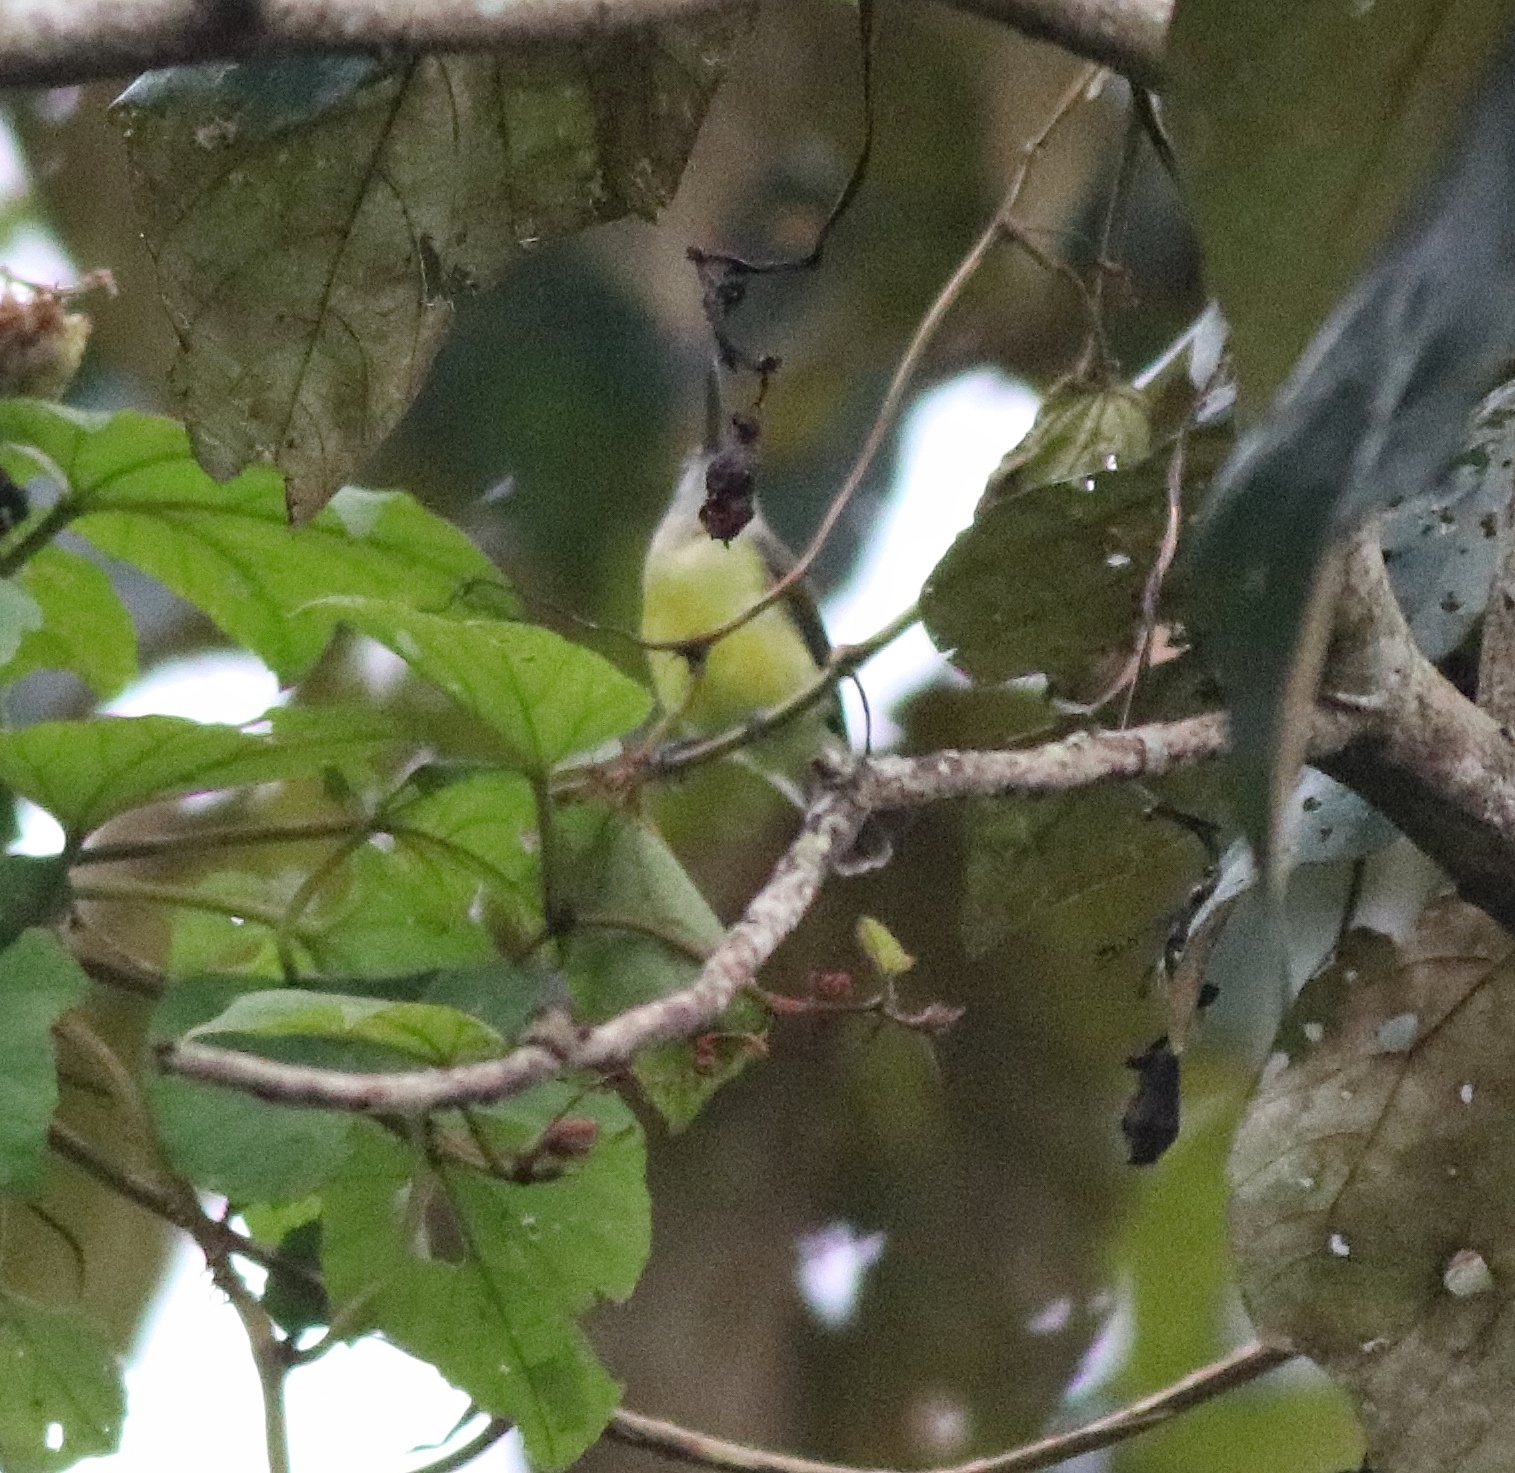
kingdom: Animalia
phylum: Chordata
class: Aves
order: Passeriformes
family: Nectariniidae
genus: Arachnothera
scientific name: Arachnothera longirostra
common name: Little spiderhunter
